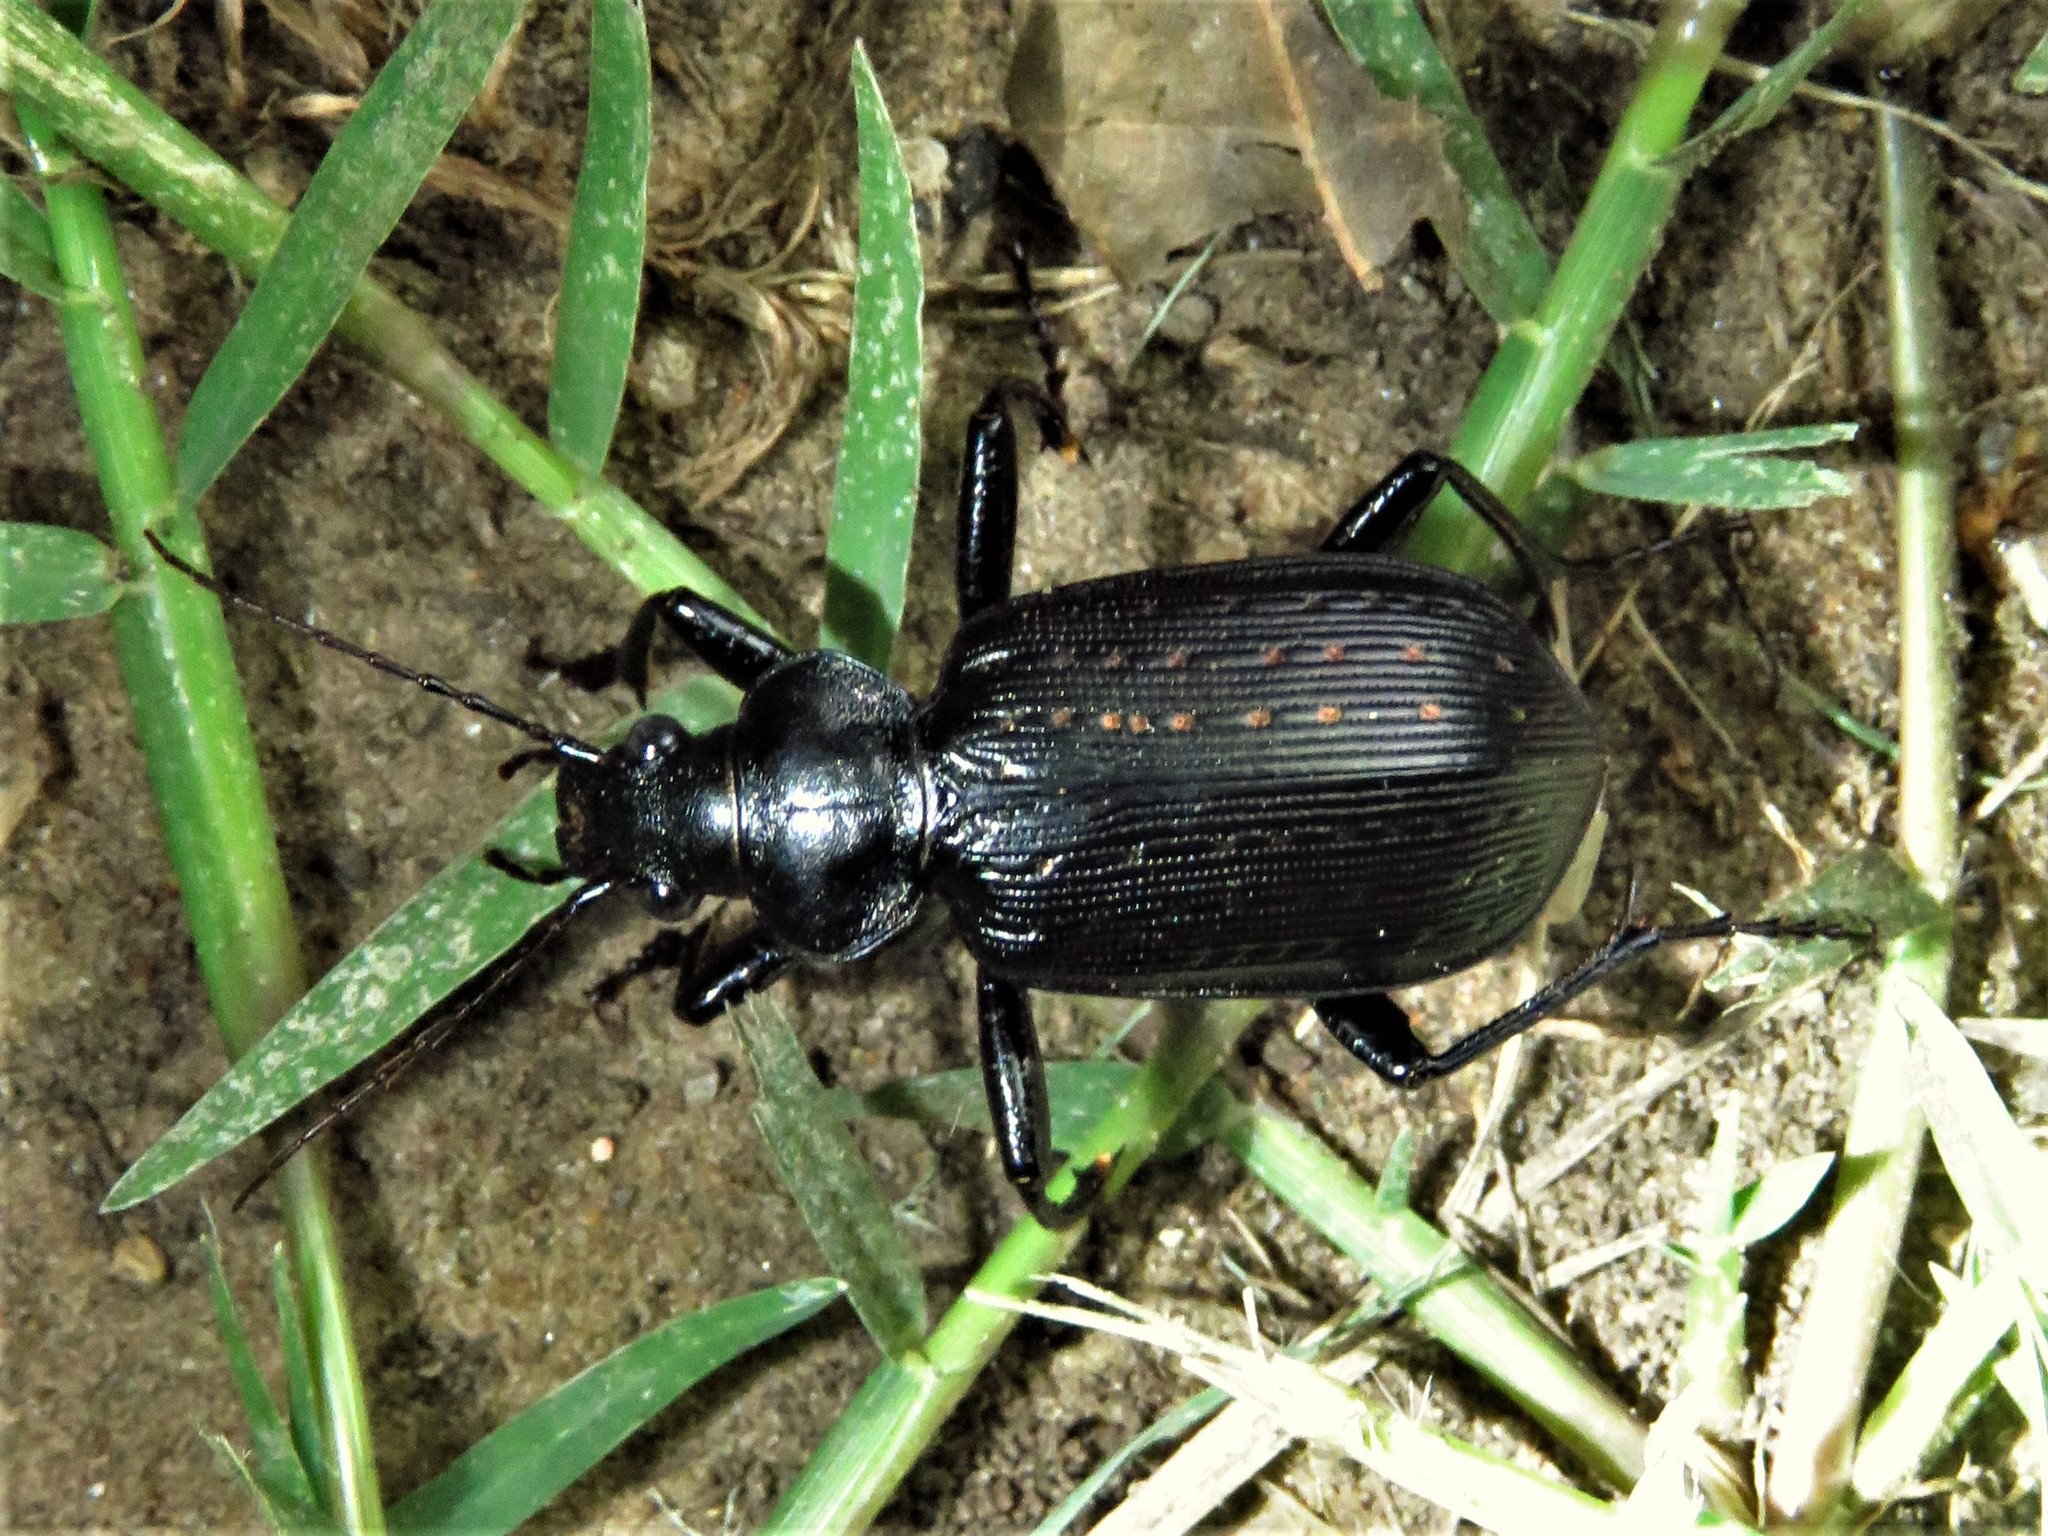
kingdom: Animalia
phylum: Arthropoda
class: Insecta
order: Coleoptera
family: Carabidae
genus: Calosoma
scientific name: Calosoma sayi
